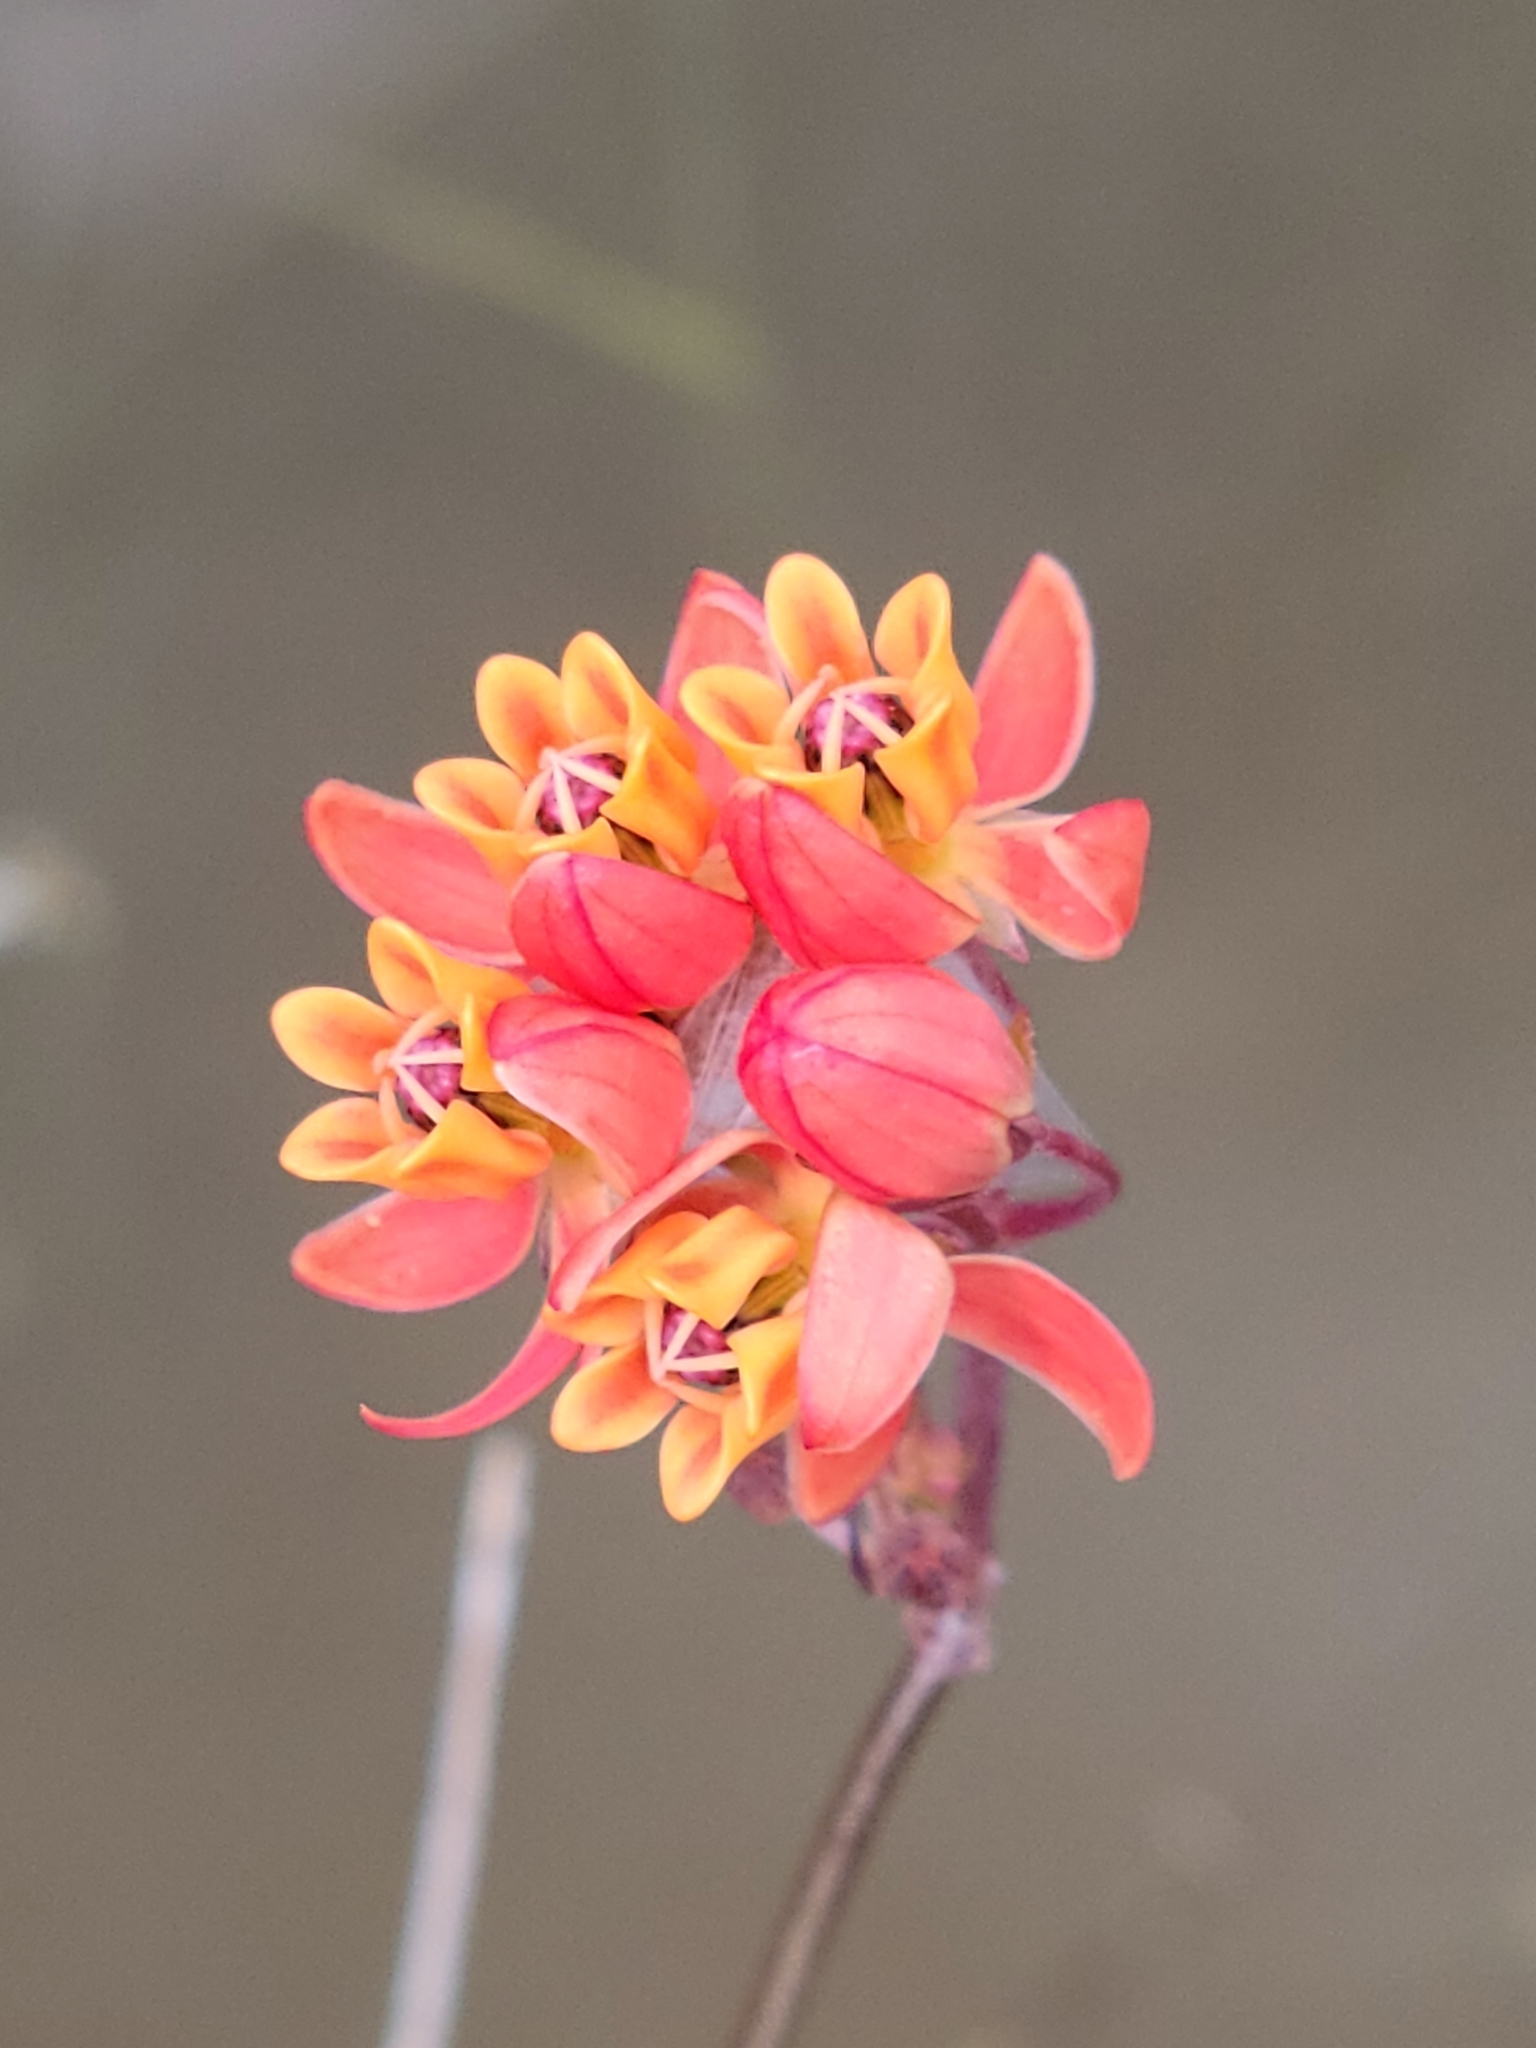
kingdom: Plantae
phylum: Tracheophyta
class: Magnoliopsida
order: Gentianales
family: Apocynaceae
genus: Asclepias
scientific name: Asclepias lanceolata
